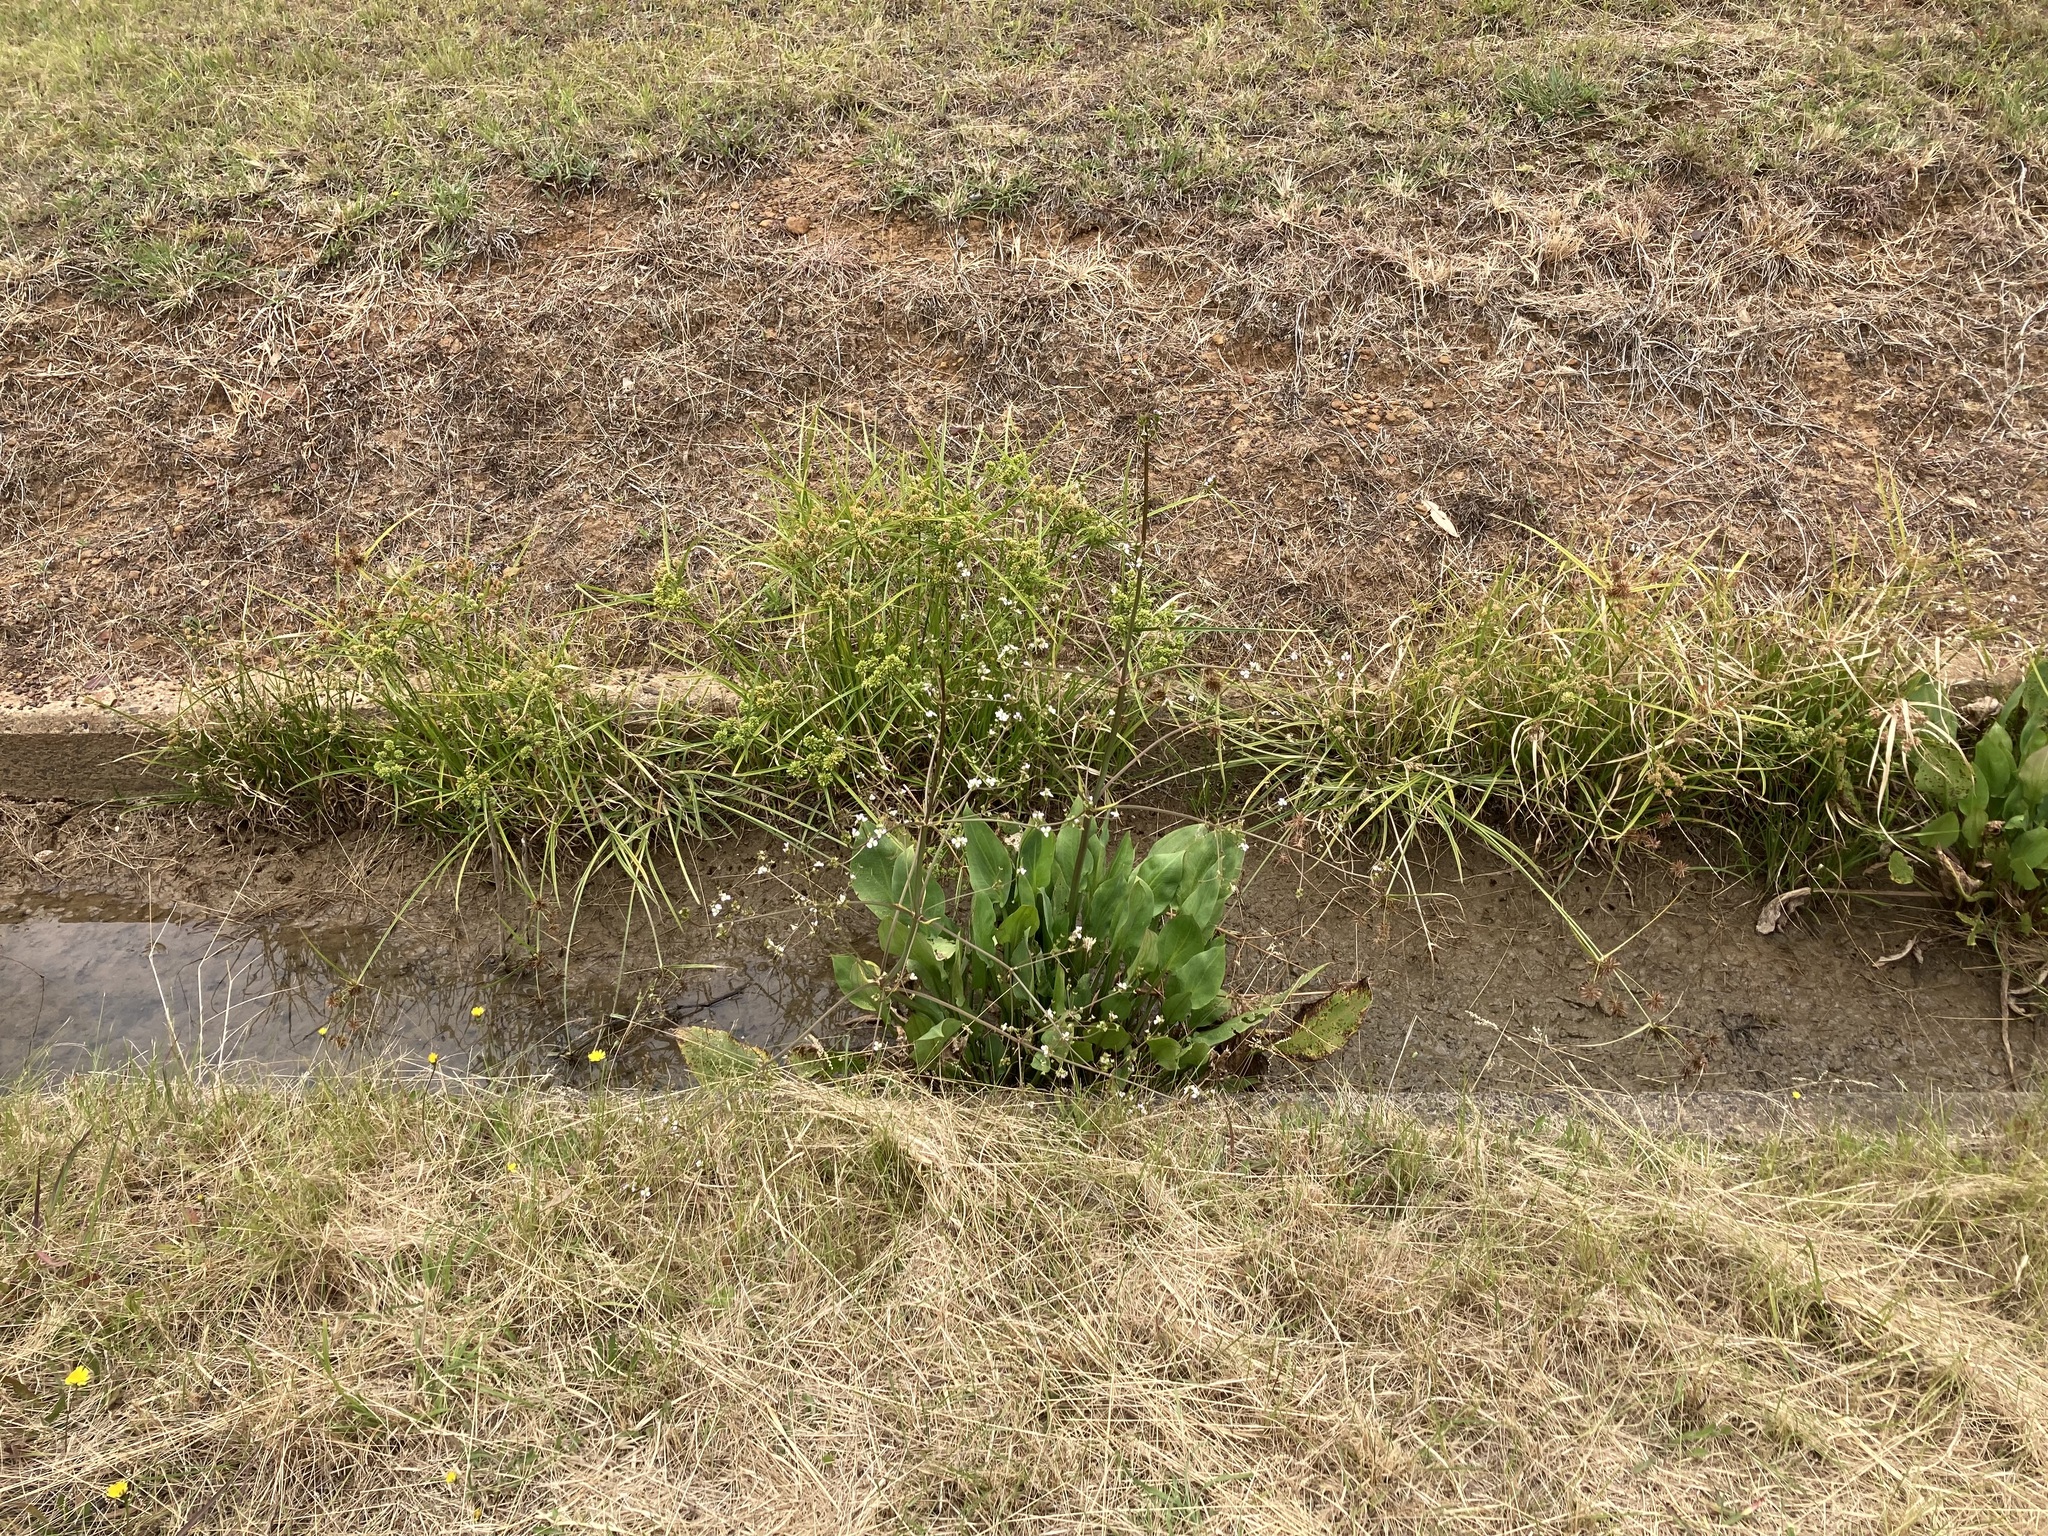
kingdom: Plantae
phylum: Tracheophyta
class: Liliopsida
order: Alismatales
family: Alismataceae
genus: Alisma
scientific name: Alisma plantago-aquatica
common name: Water-plantain
